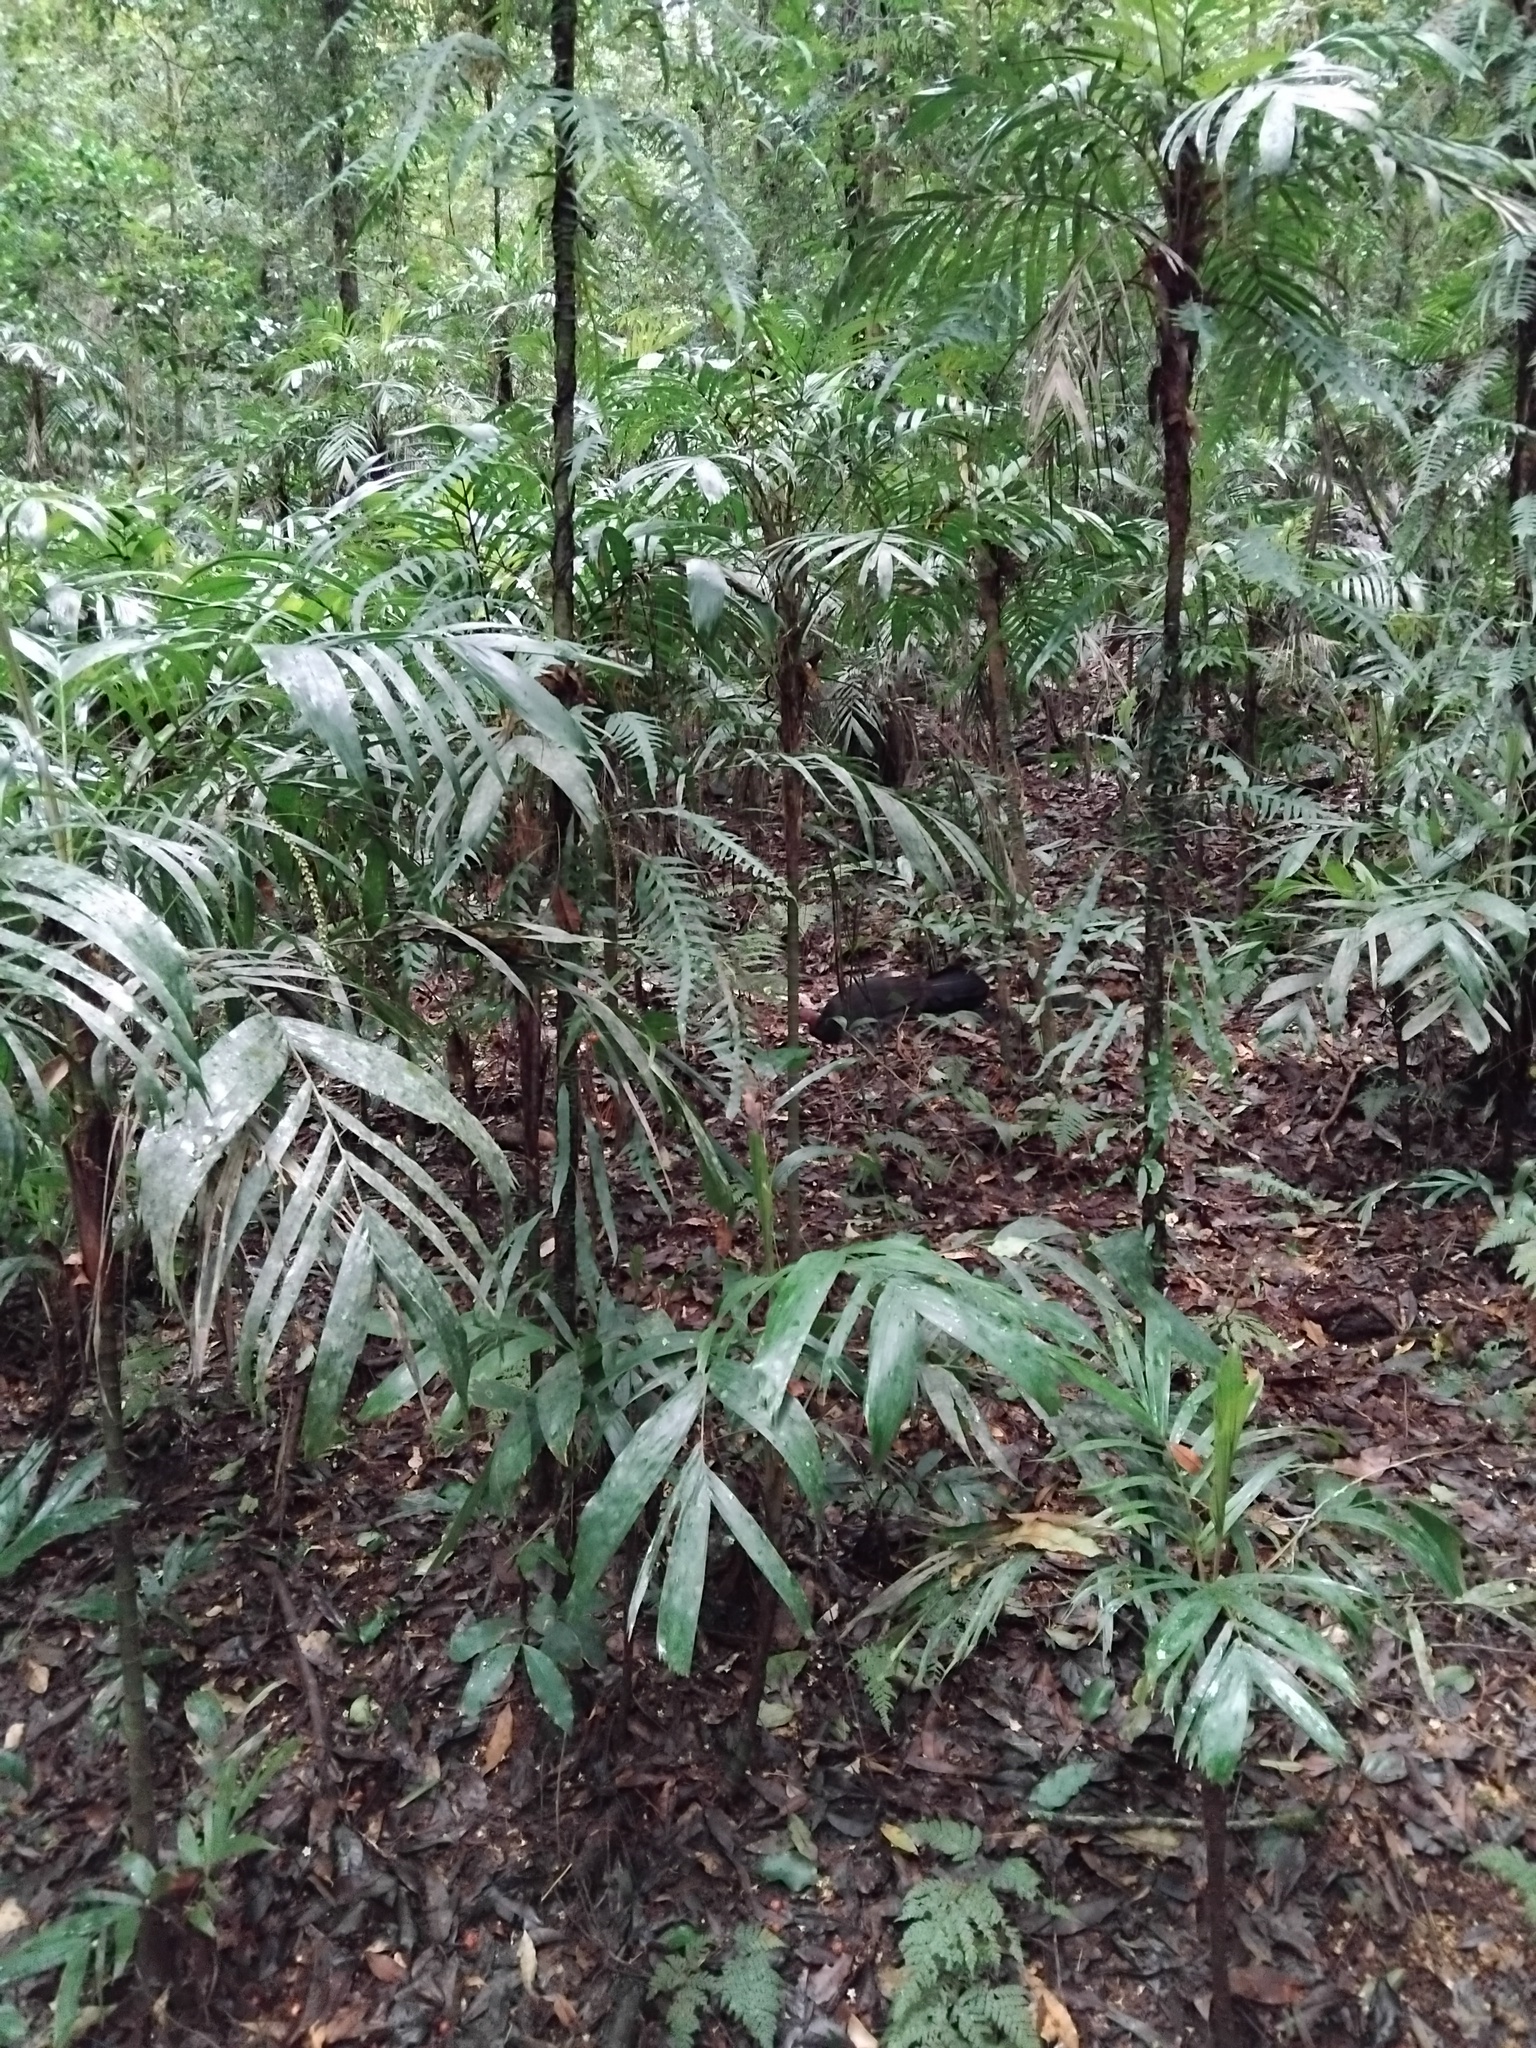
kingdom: Animalia
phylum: Chordata
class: Aves
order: Galliformes
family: Megapodiidae
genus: Alectura
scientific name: Alectura lathami
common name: Australian brushturkey
